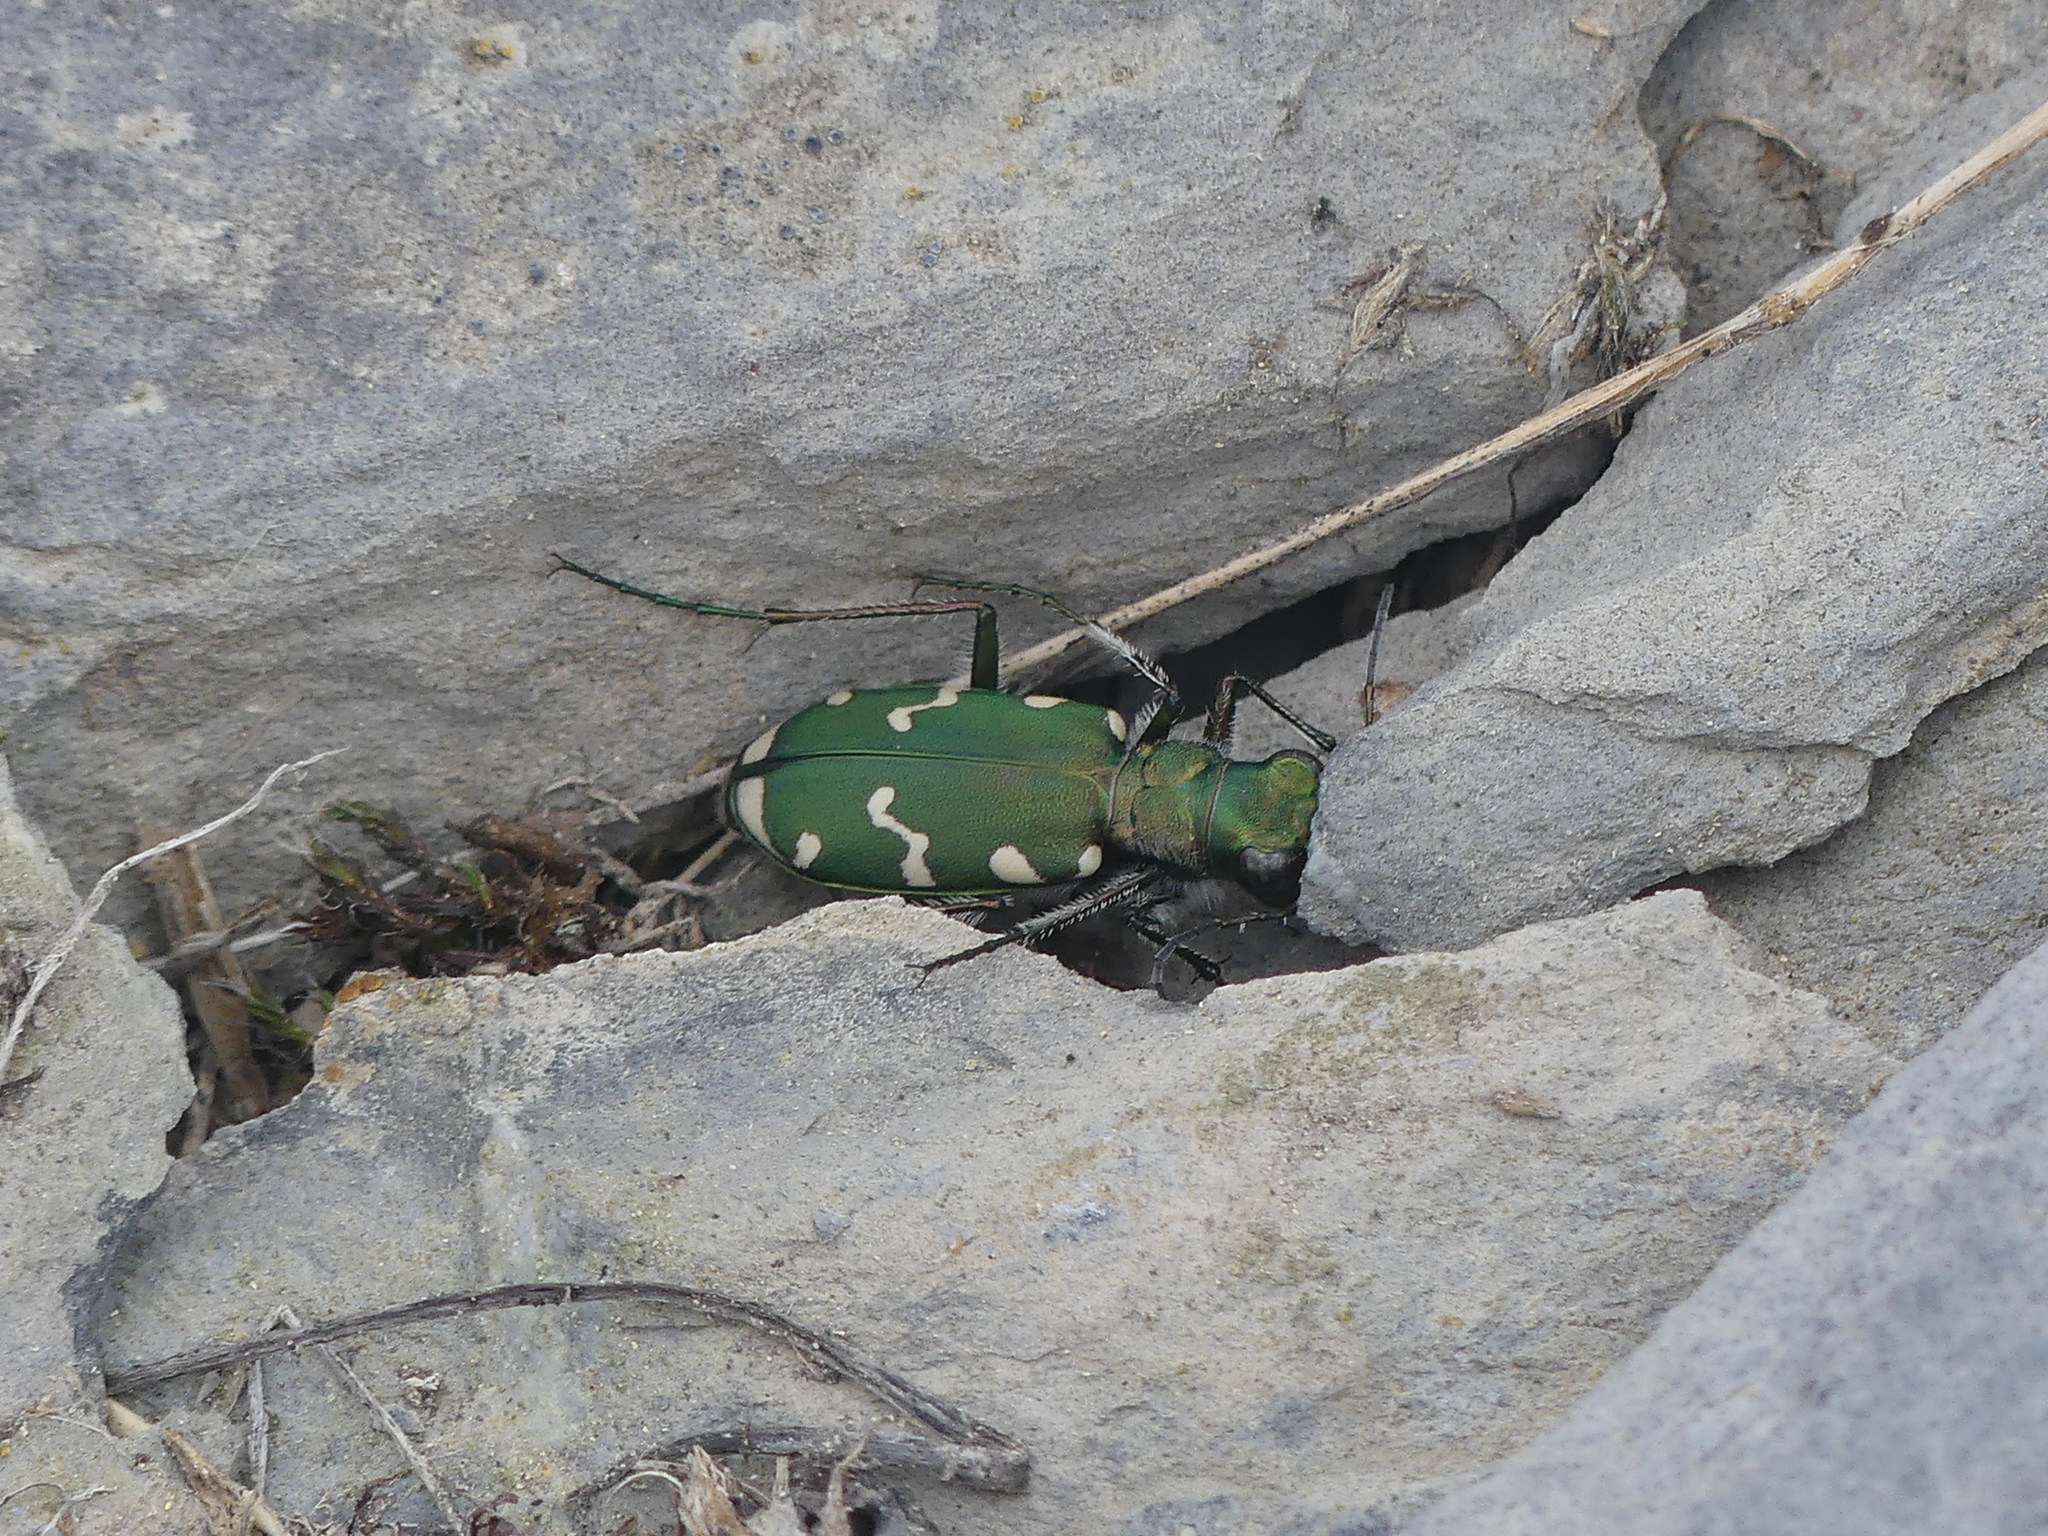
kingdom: Animalia
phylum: Arthropoda
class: Insecta
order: Coleoptera
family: Carabidae
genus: Cicindela
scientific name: Cicindela gallica
